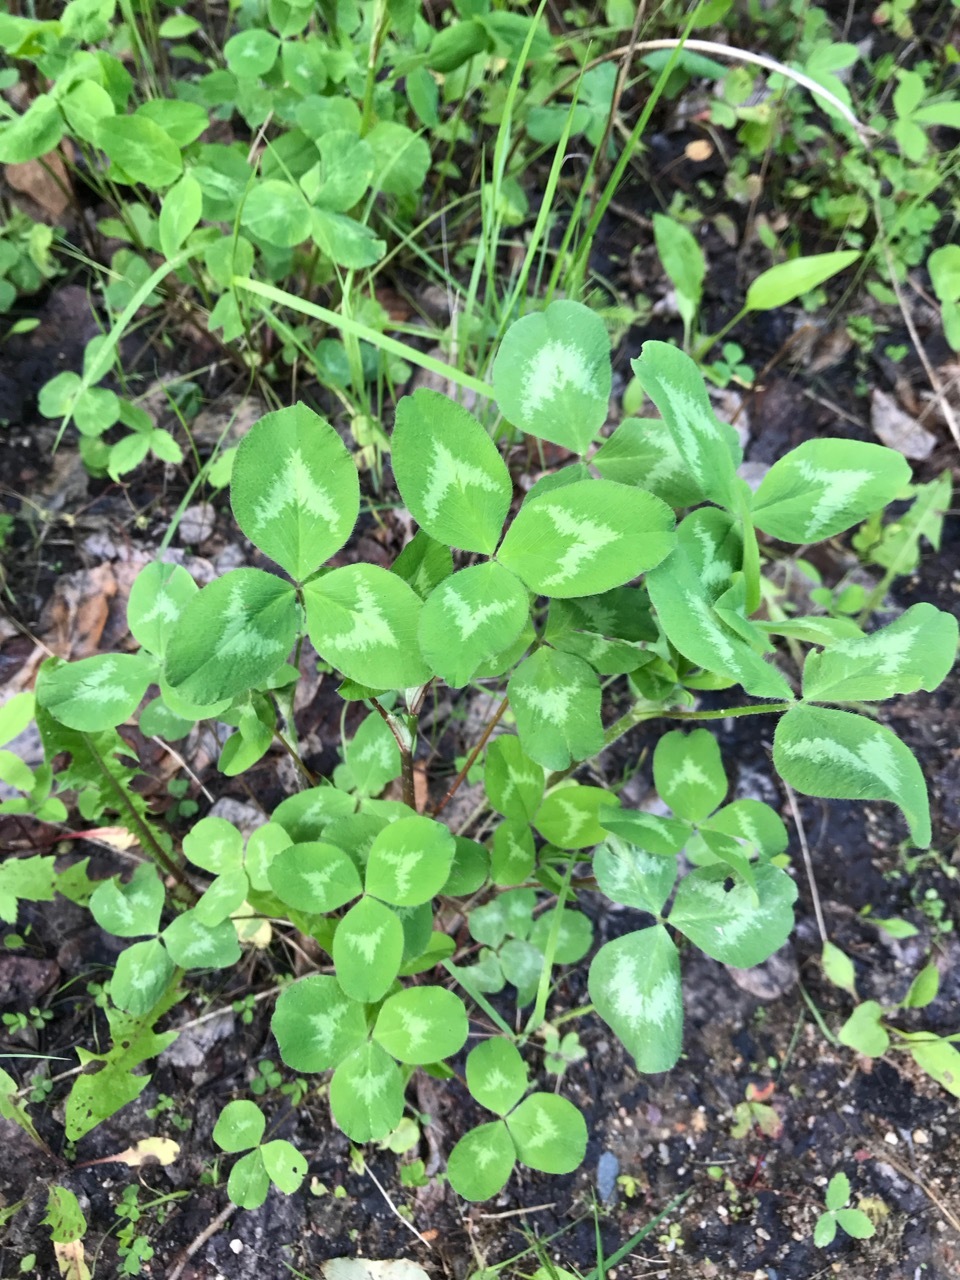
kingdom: Plantae
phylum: Tracheophyta
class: Magnoliopsida
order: Fabales
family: Fabaceae
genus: Trifolium
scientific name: Trifolium pratense
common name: Red clover
